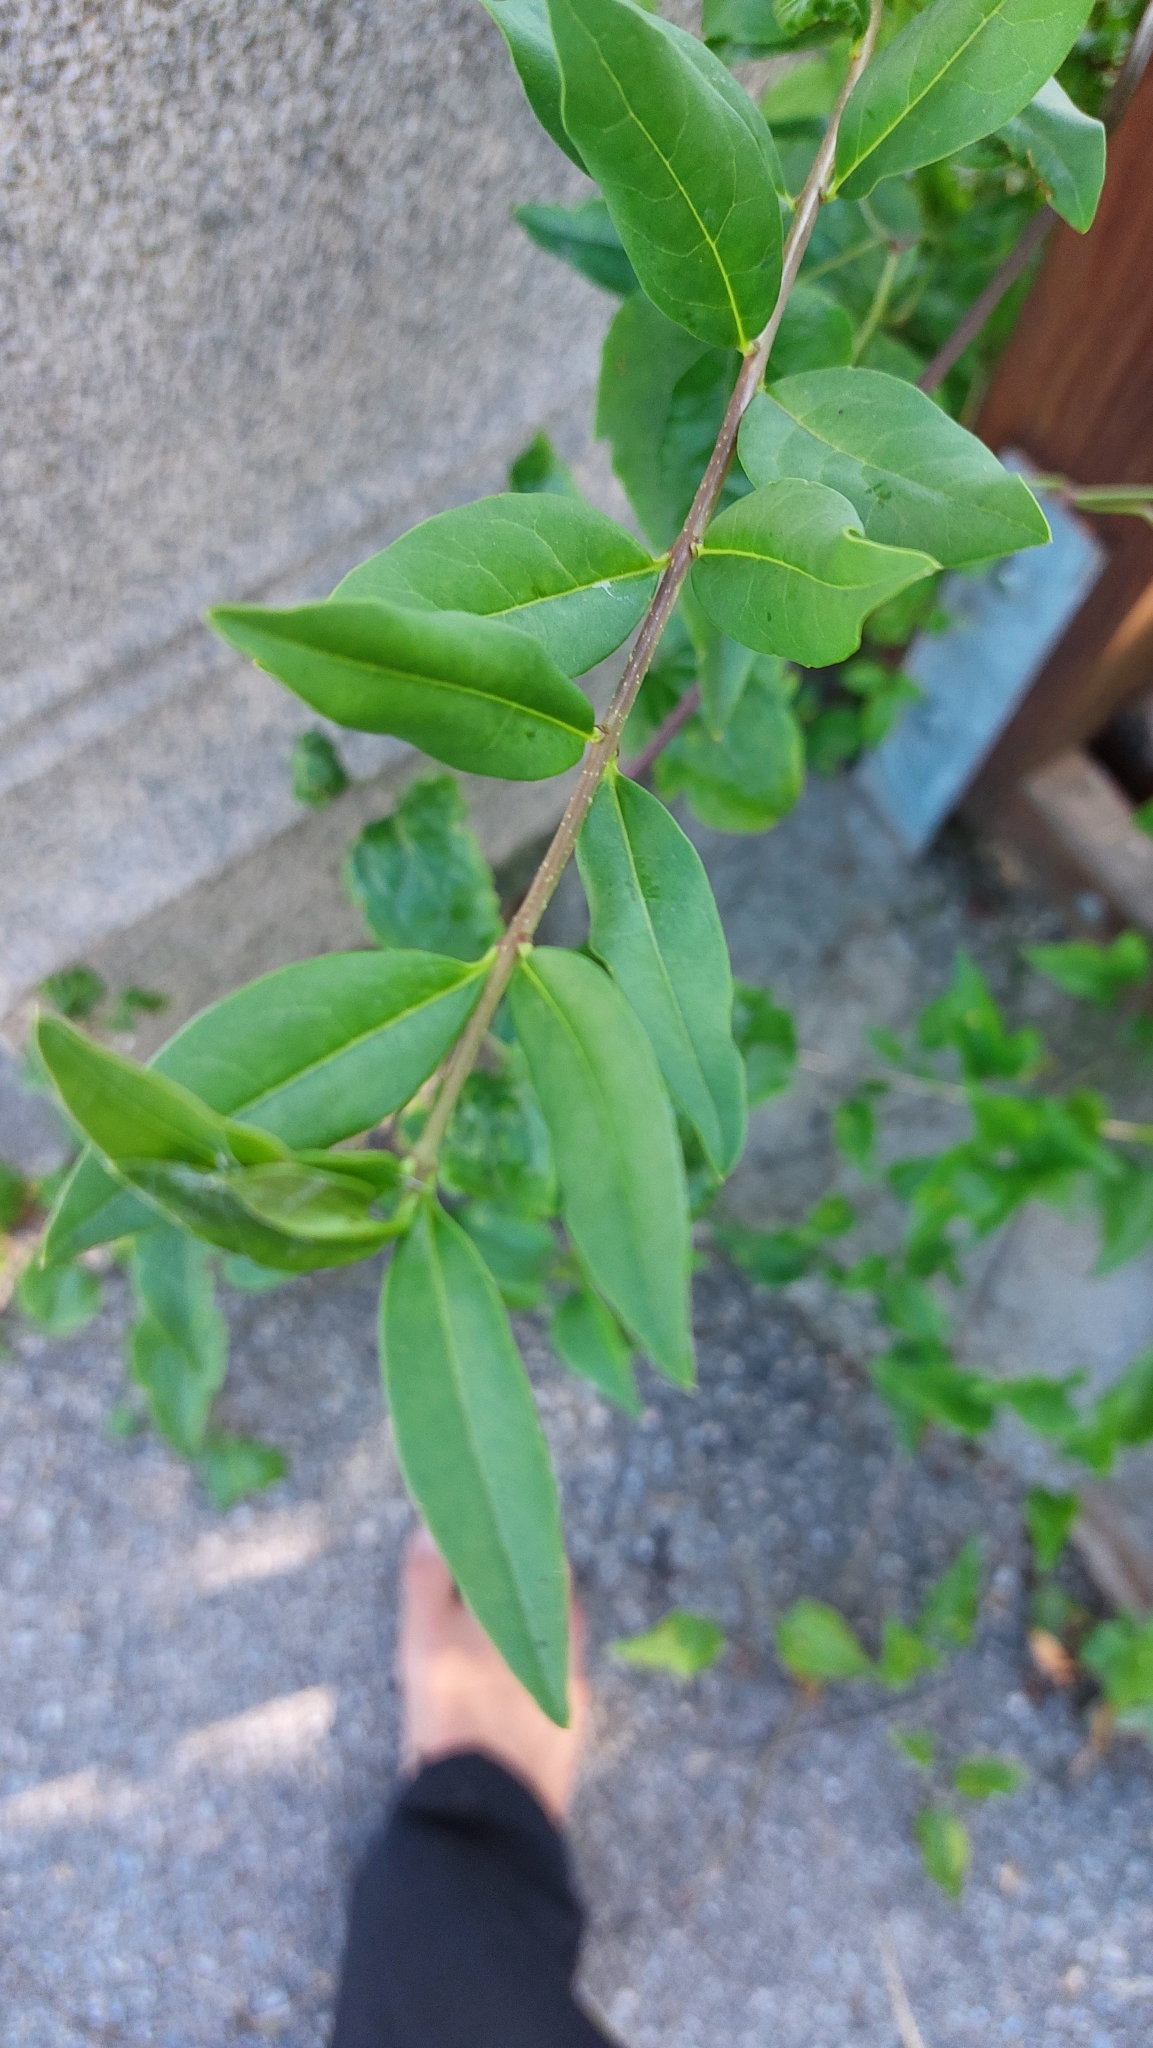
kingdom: Plantae
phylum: Tracheophyta
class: Magnoliopsida
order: Lamiales
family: Oleaceae
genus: Ligustrum
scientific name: Ligustrum vulgare
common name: Wild privet
